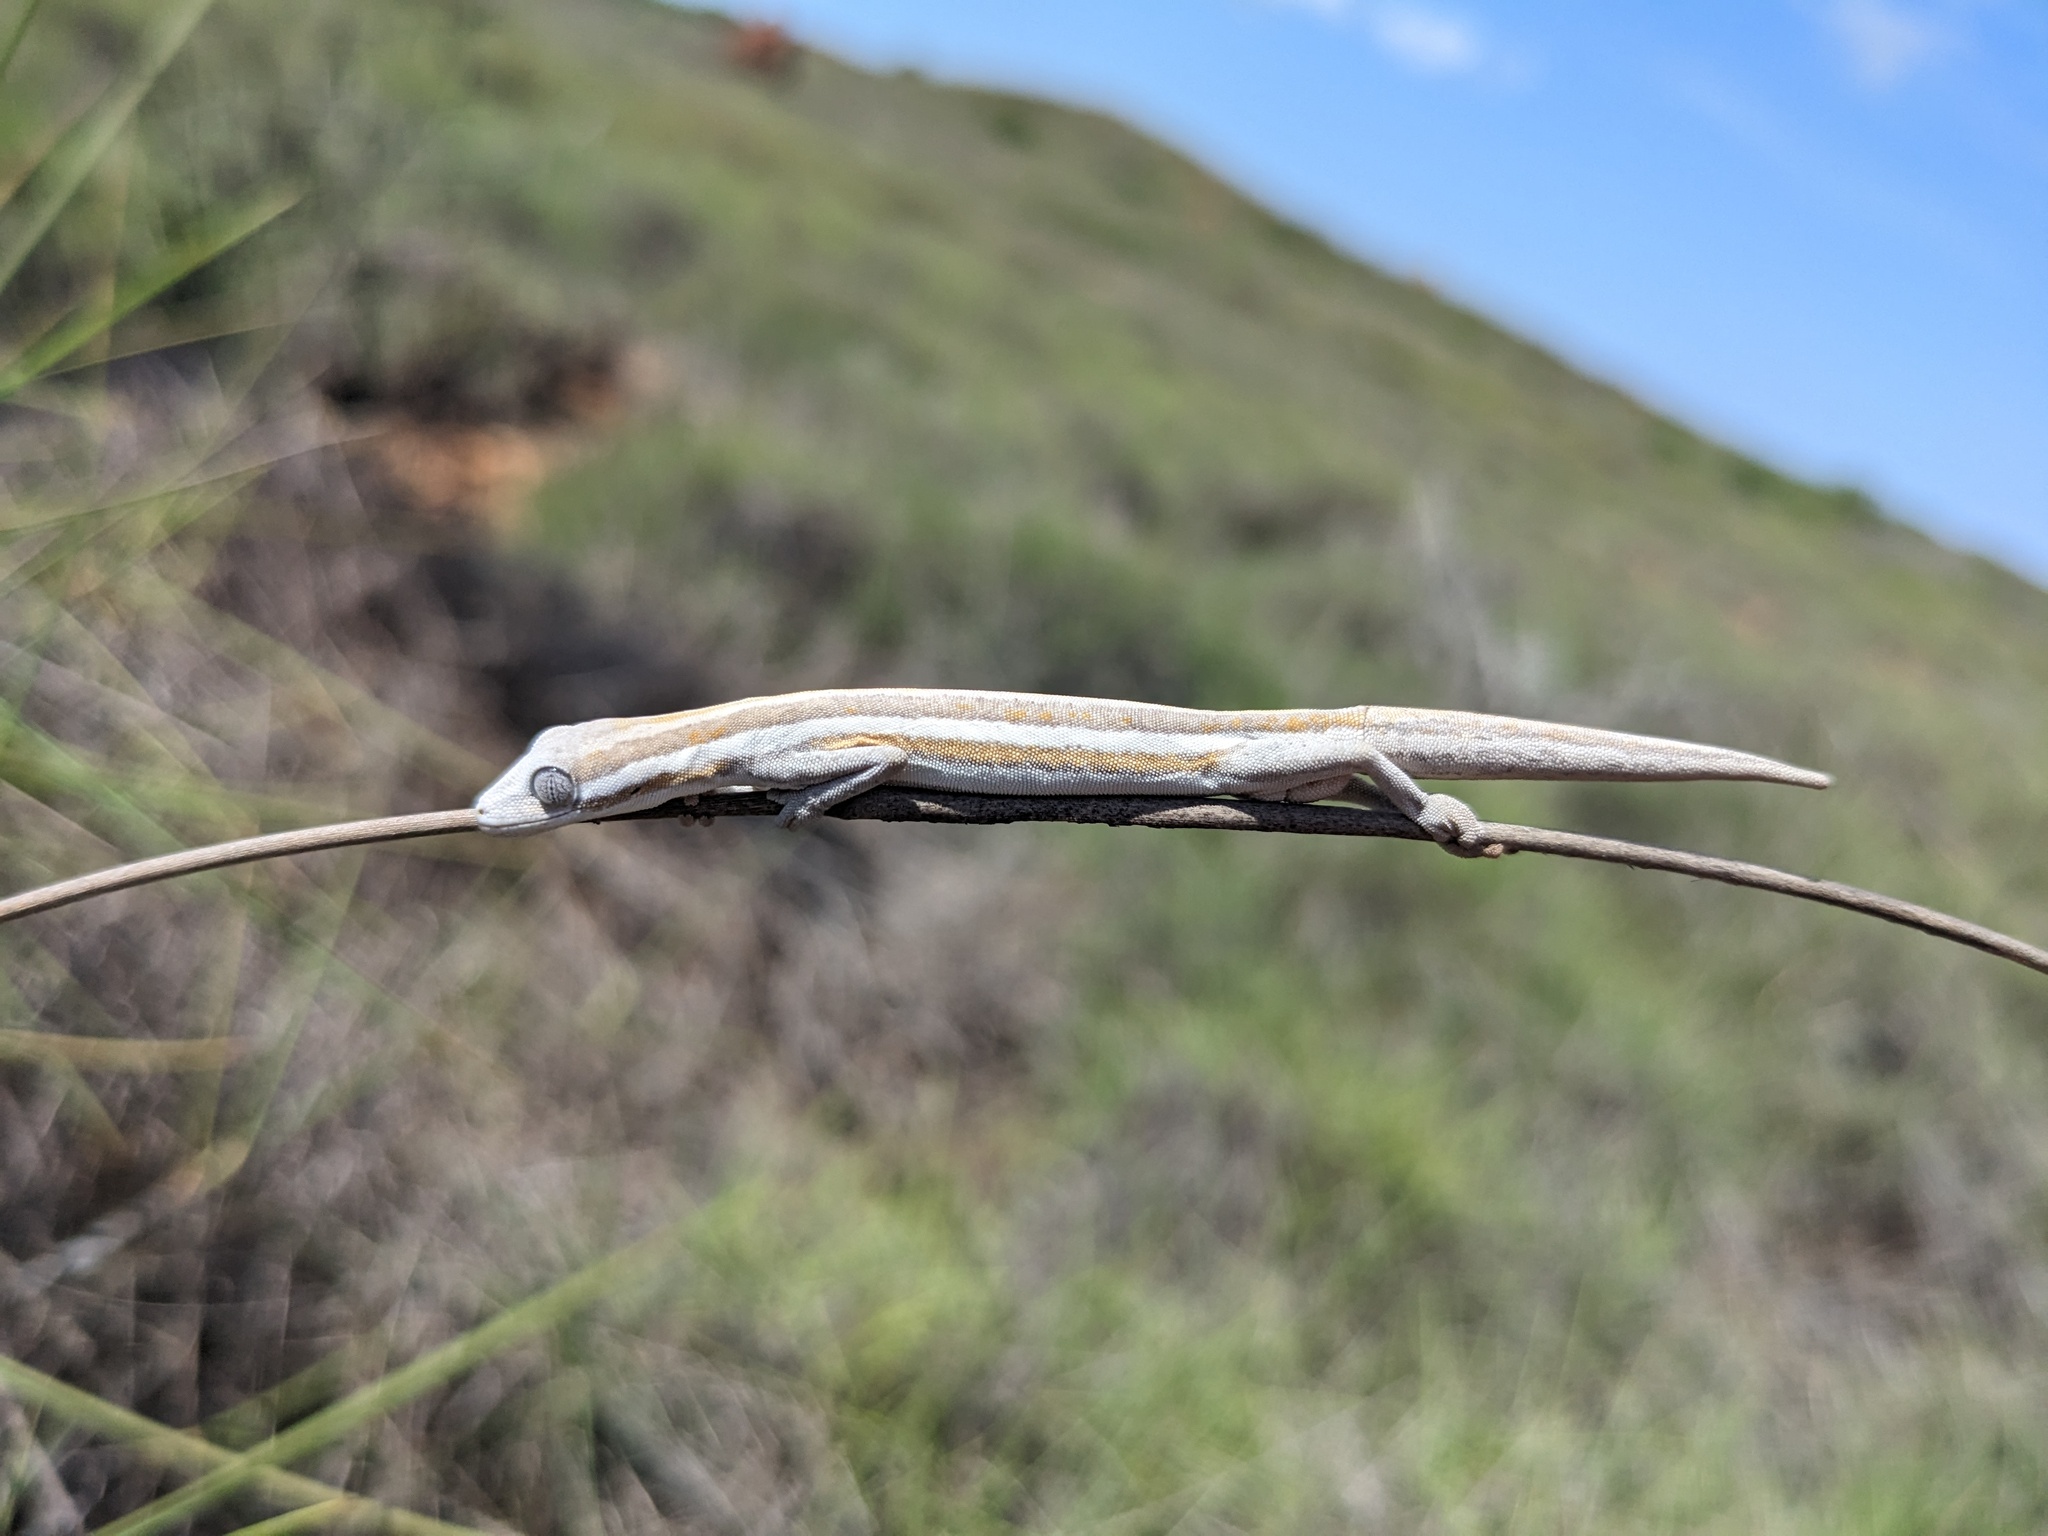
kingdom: Animalia
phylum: Chordata
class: Squamata
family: Diplodactylidae
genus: Strophurus
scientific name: Strophurus jeanae
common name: Southern phasmid gecko
